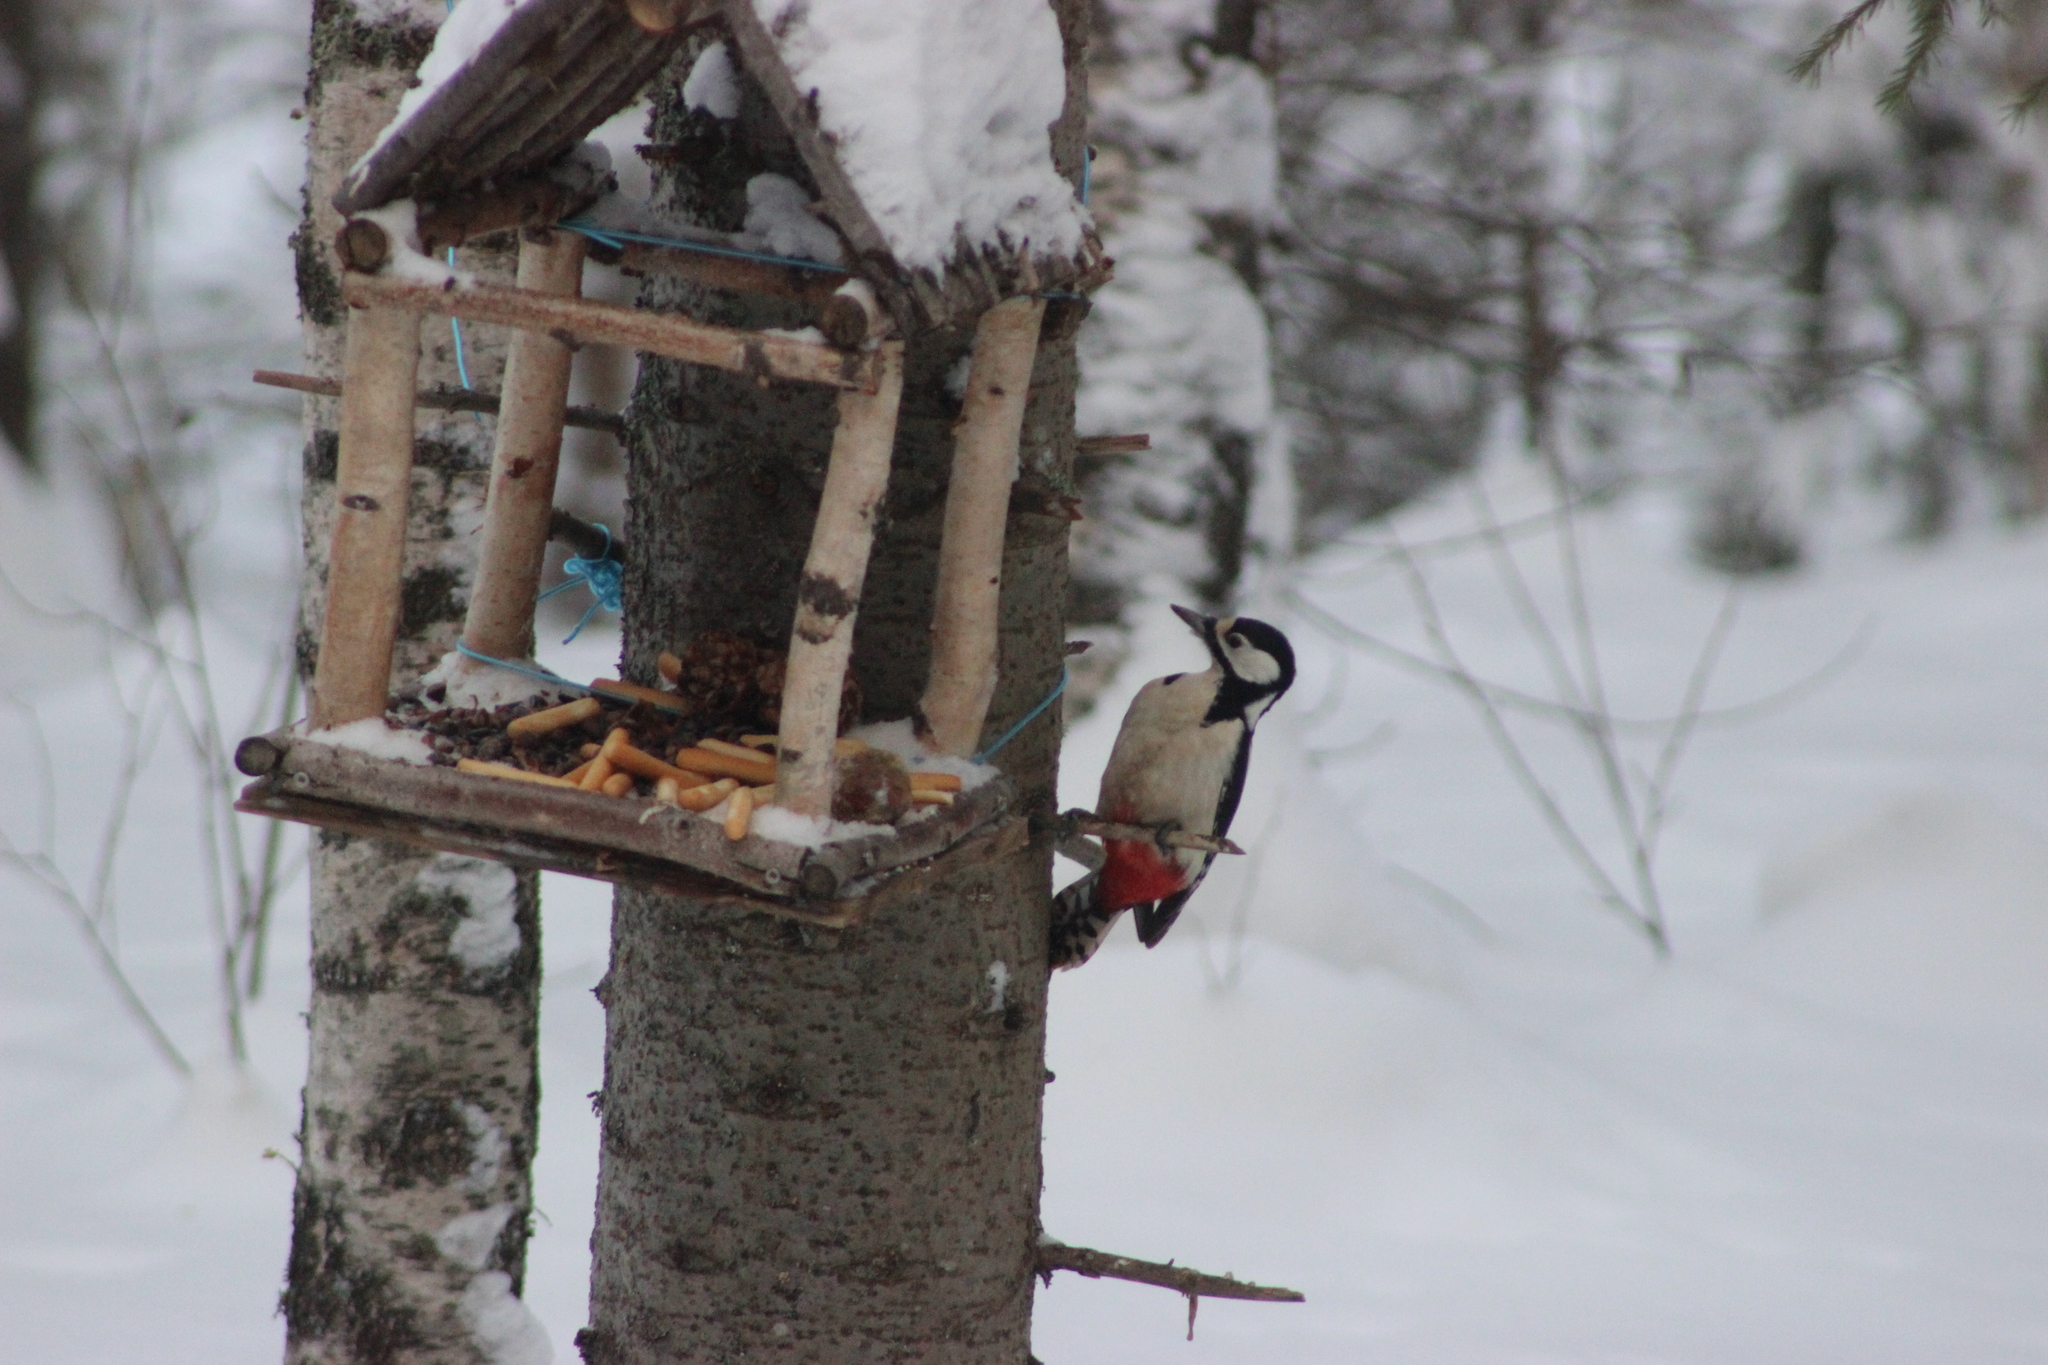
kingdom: Animalia
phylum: Chordata
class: Aves
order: Piciformes
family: Picidae
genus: Dendrocopos
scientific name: Dendrocopos major
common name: Great spotted woodpecker
